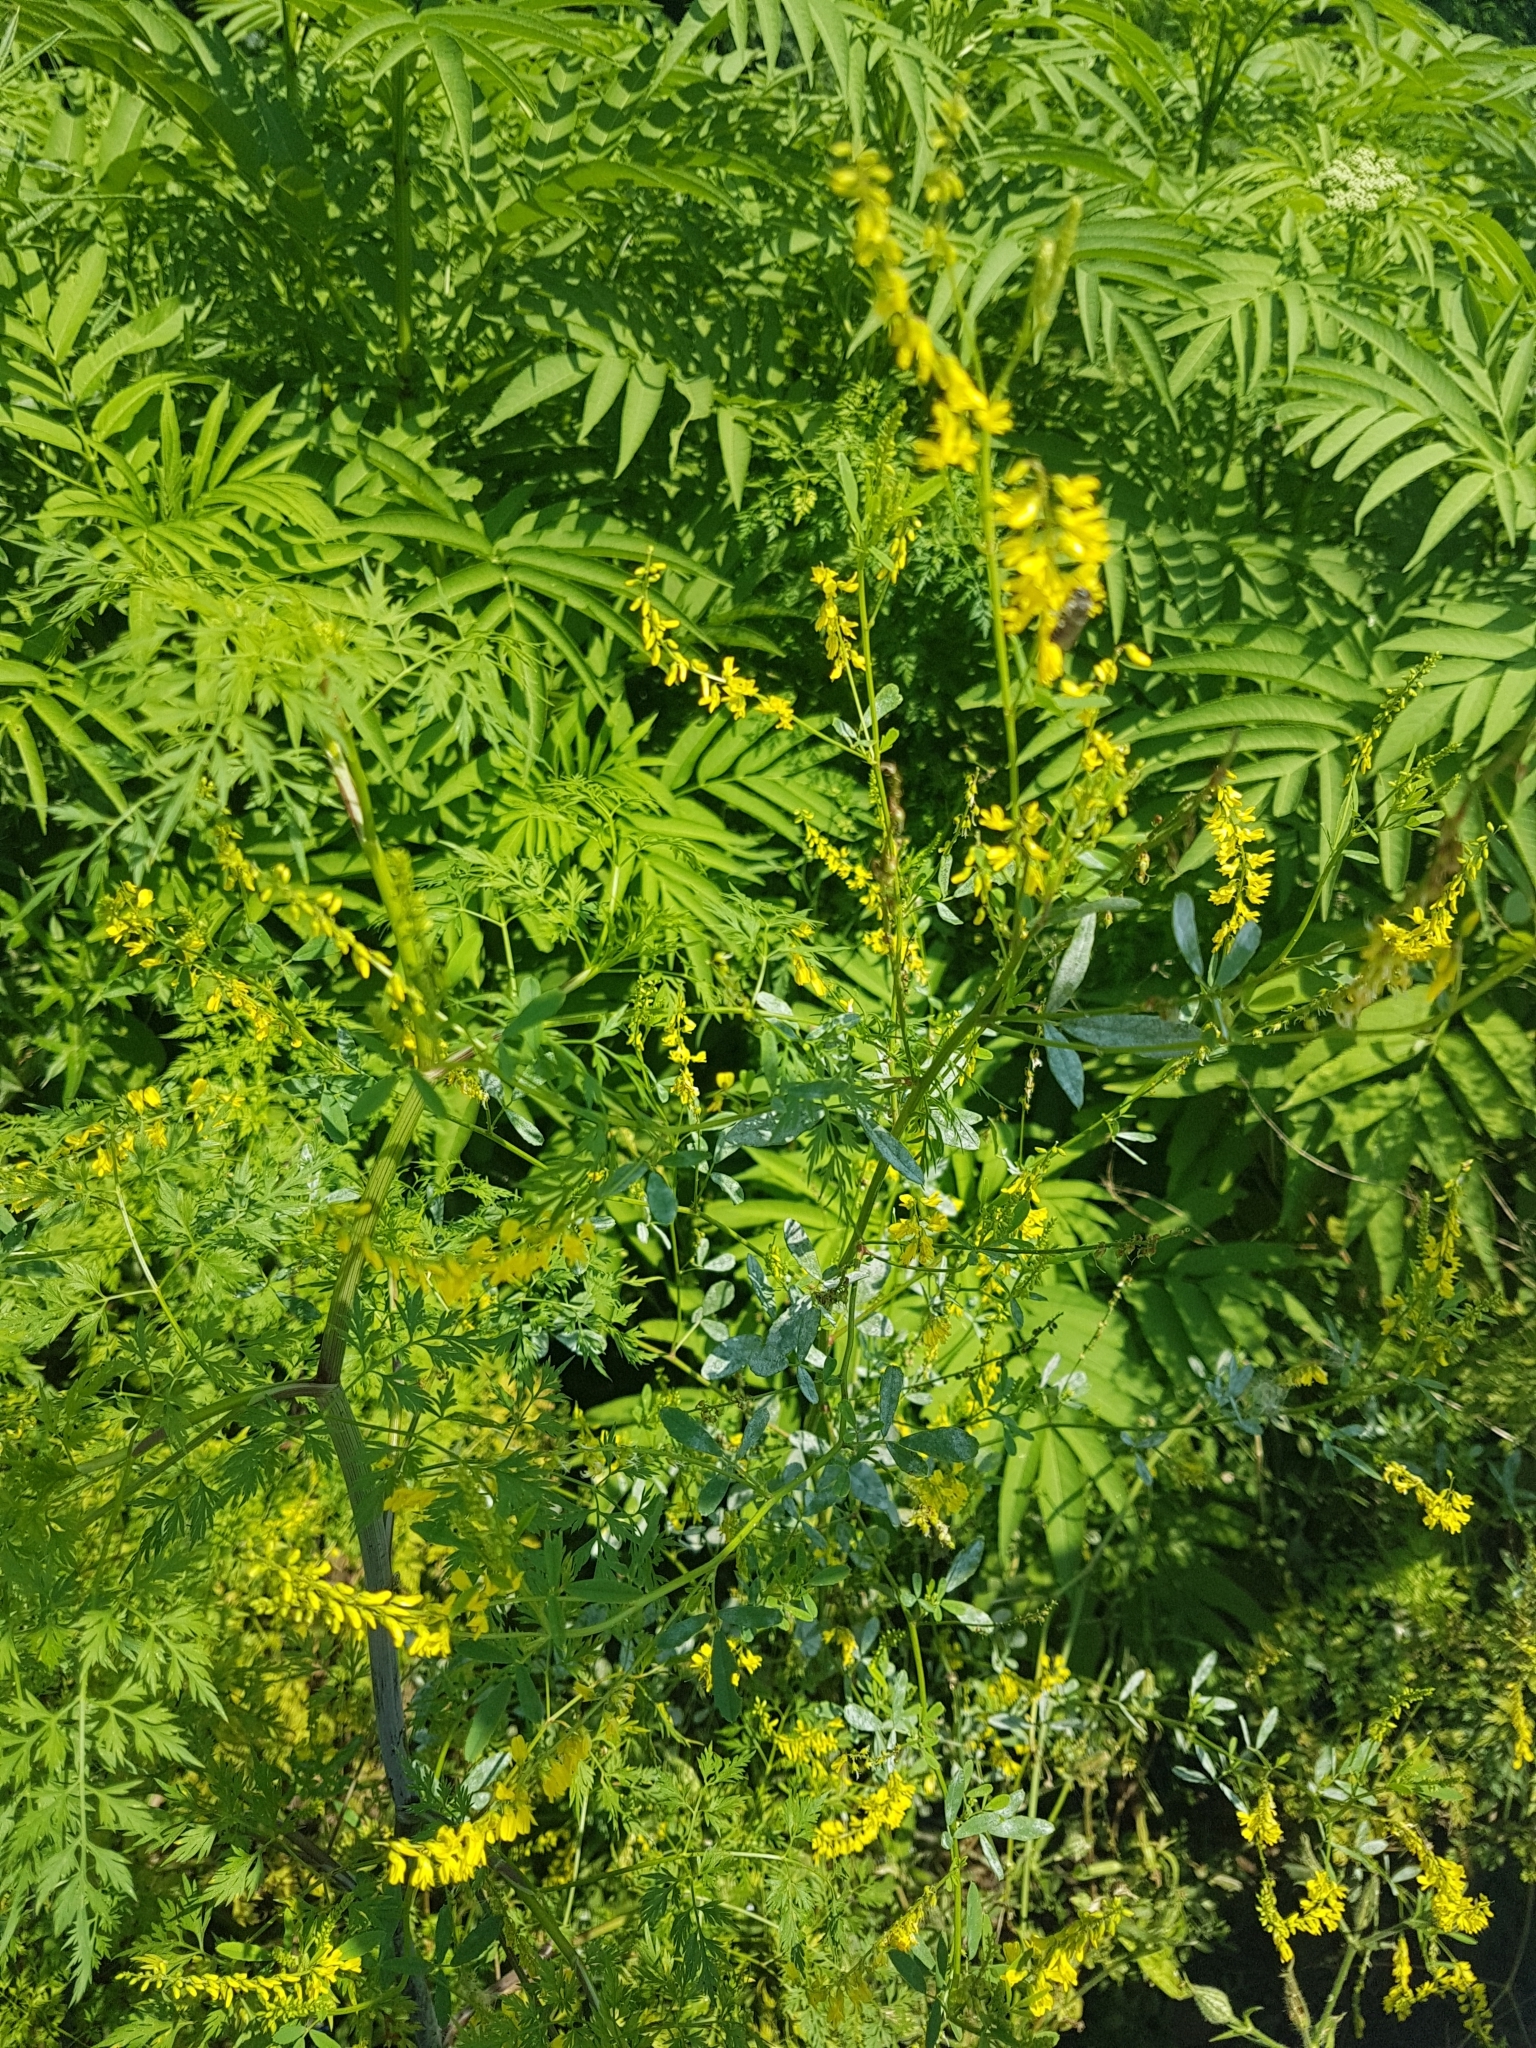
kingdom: Plantae
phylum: Tracheophyta
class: Magnoliopsida
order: Fabales
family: Fabaceae
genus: Melilotus
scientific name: Melilotus officinalis
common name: Sweetclover
